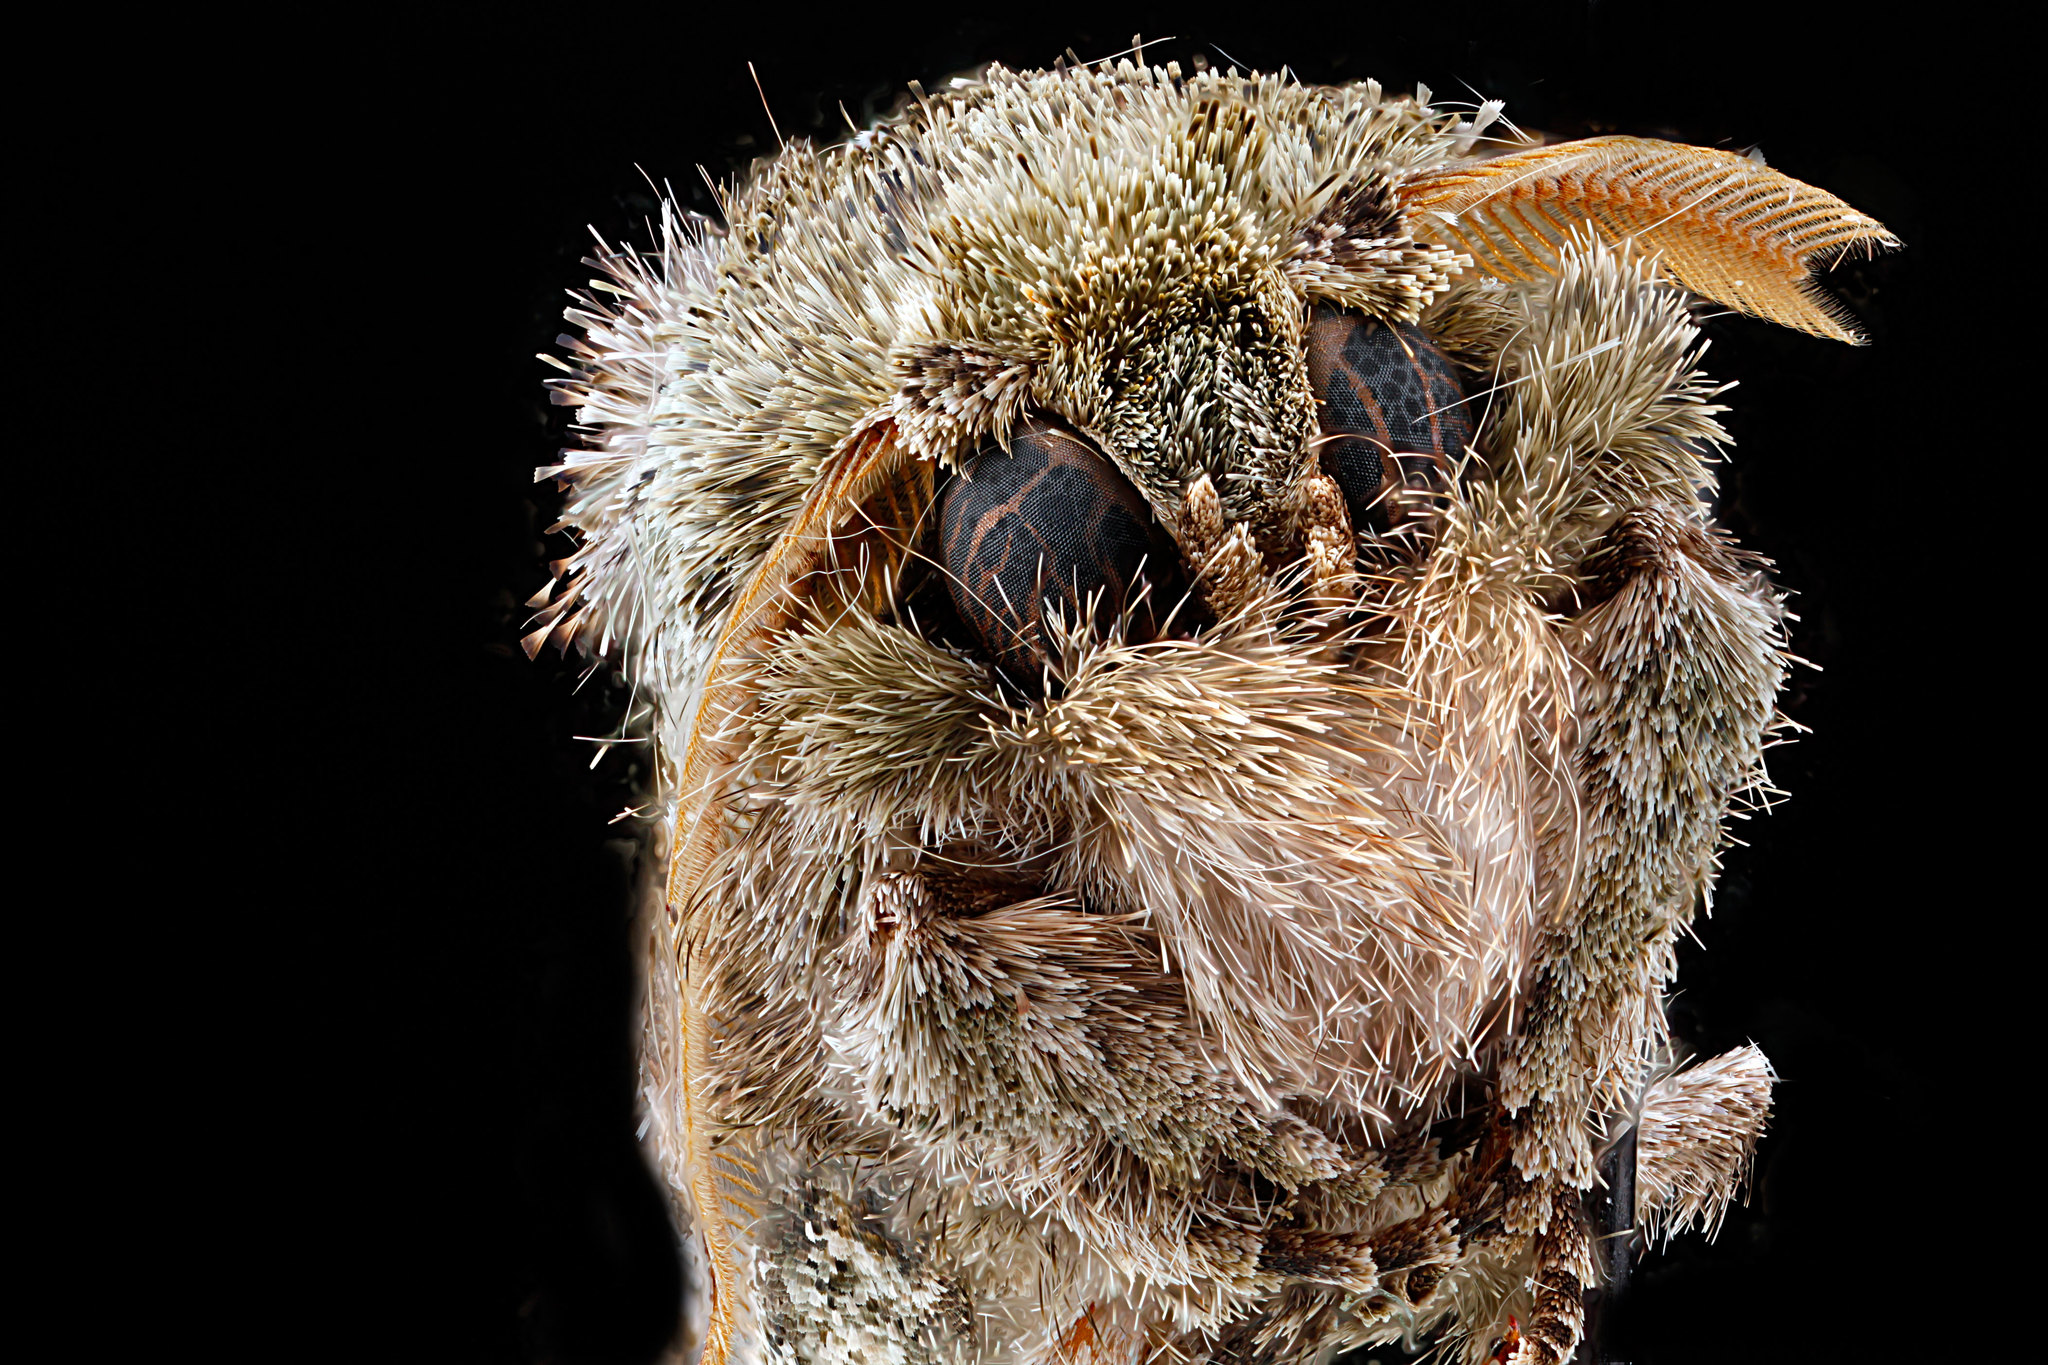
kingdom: Animalia
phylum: Arthropoda
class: Insecta
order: Lepidoptera
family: Notodontidae
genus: Schizura
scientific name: Schizura
